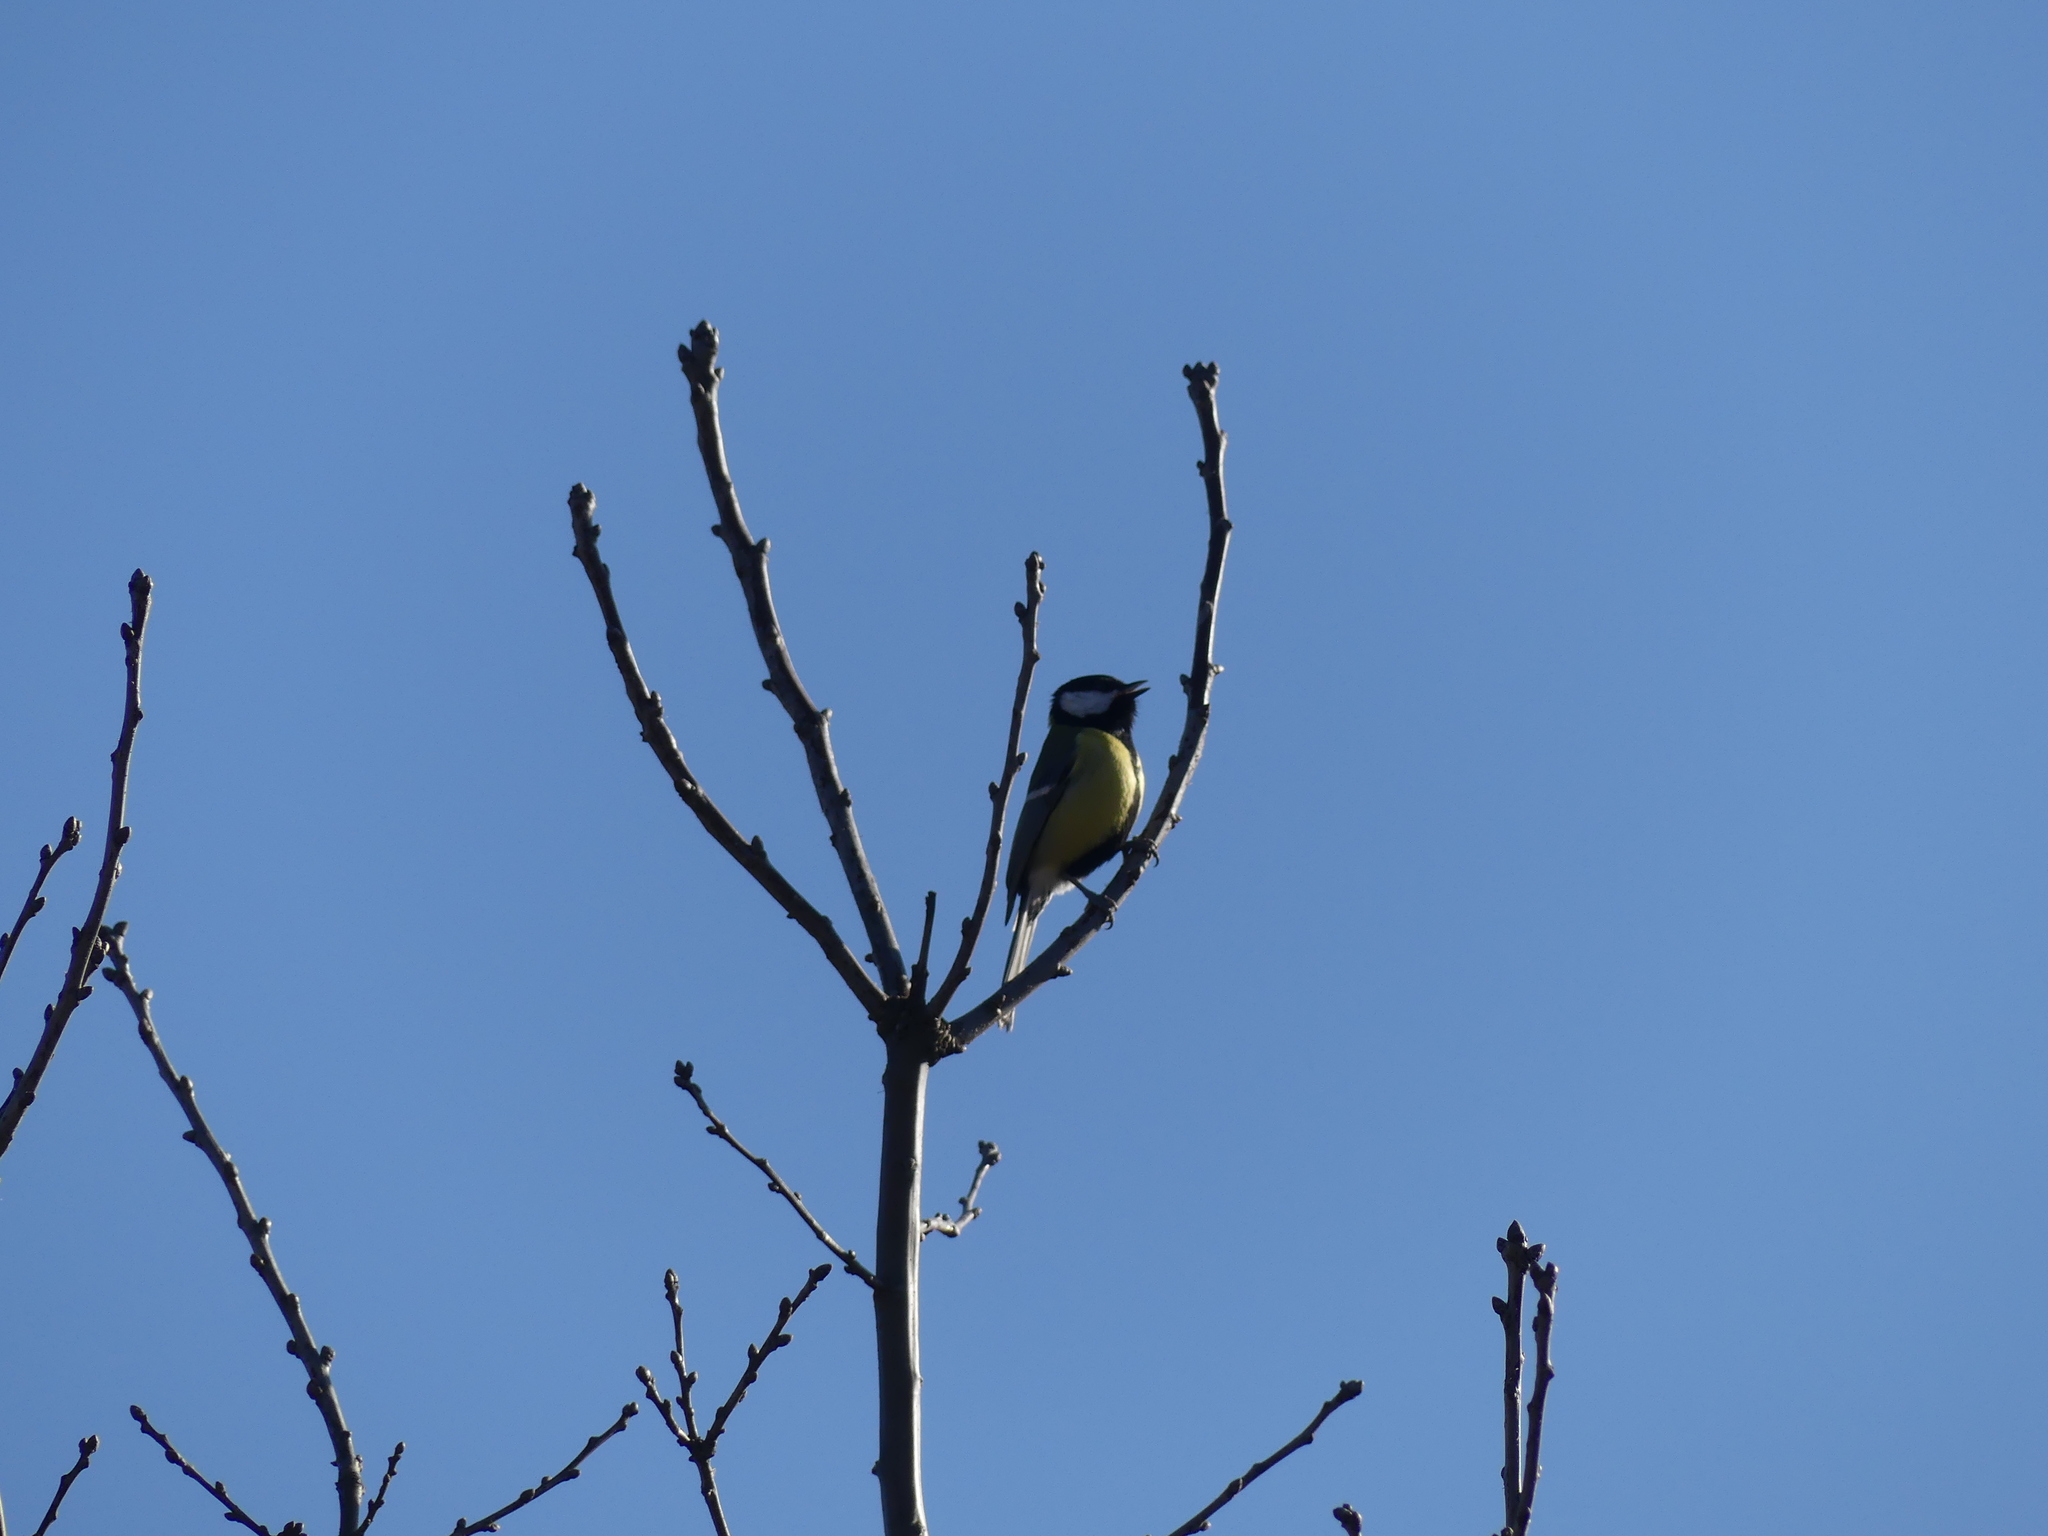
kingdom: Animalia
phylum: Chordata
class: Aves
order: Passeriformes
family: Paridae
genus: Parus
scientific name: Parus major
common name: Great tit
